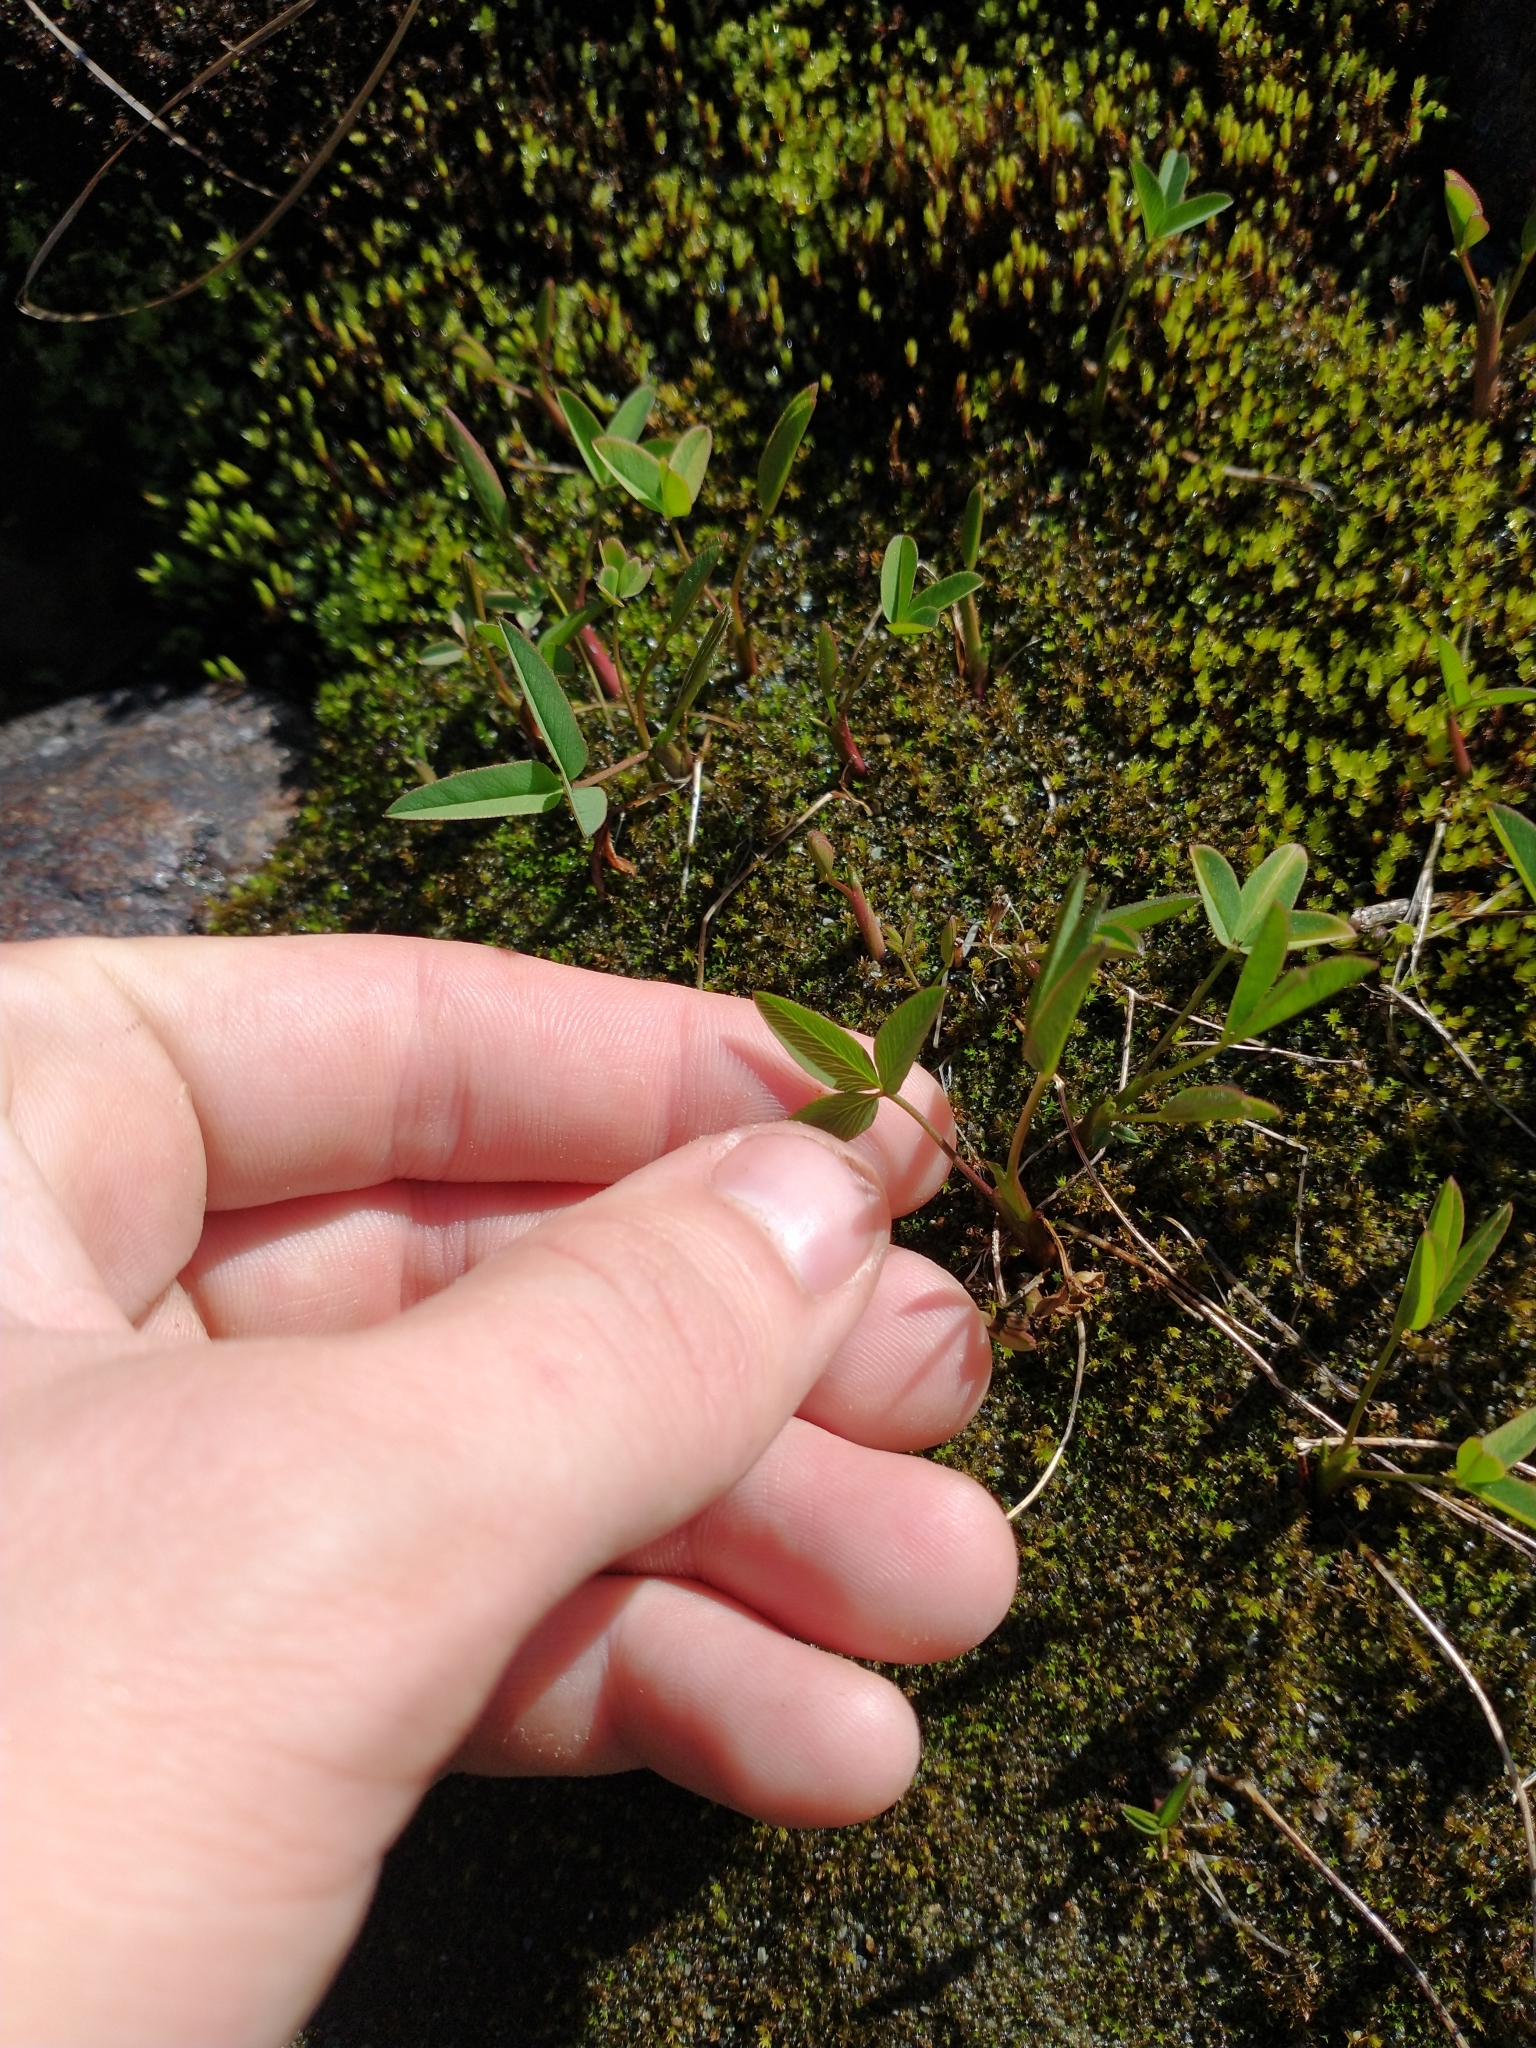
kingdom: Plantae
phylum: Tracheophyta
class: Magnoliopsida
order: Asterales
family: Menyanthaceae
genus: Menyanthes
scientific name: Menyanthes trifoliata
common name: Bogbean
